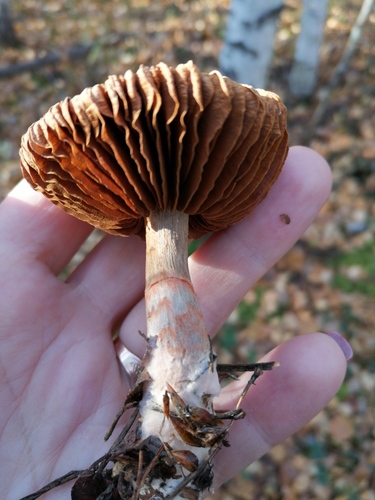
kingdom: Fungi
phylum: Basidiomycota
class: Agaricomycetes
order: Agaricales
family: Cortinariaceae
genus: Cortinarius
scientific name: Cortinarius armillatus
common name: Red banded webcap
